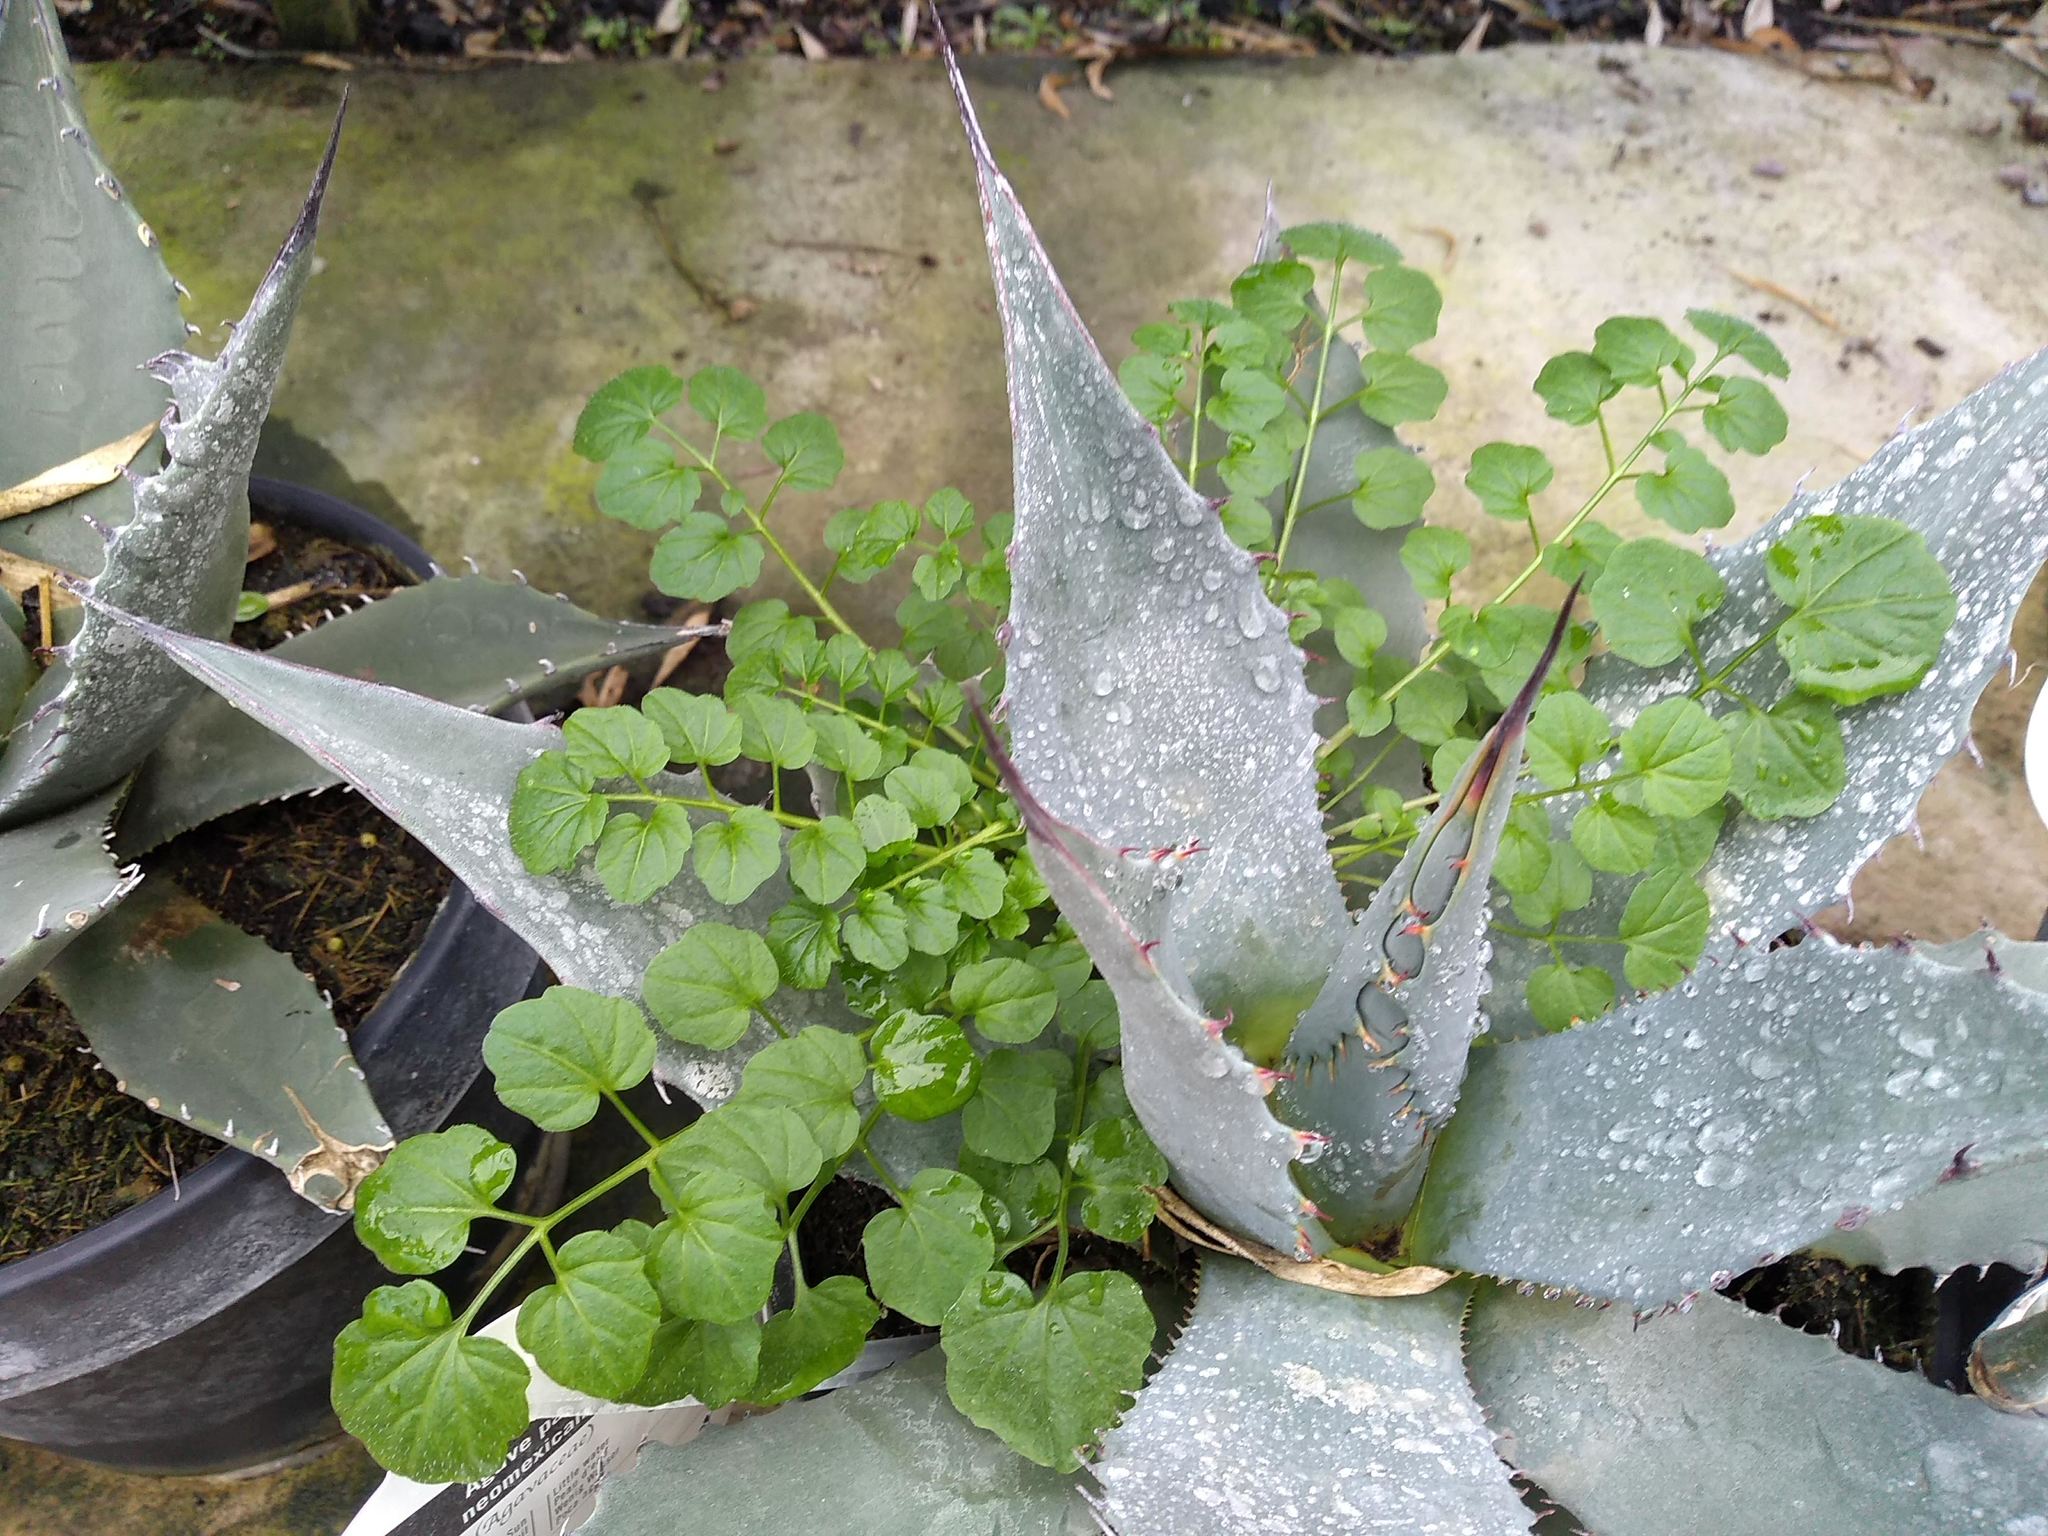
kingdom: Plantae
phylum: Tracheophyta
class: Magnoliopsida
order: Brassicales
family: Brassicaceae
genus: Cardamine
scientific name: Cardamine flexuosa
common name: Woodland bittercress
